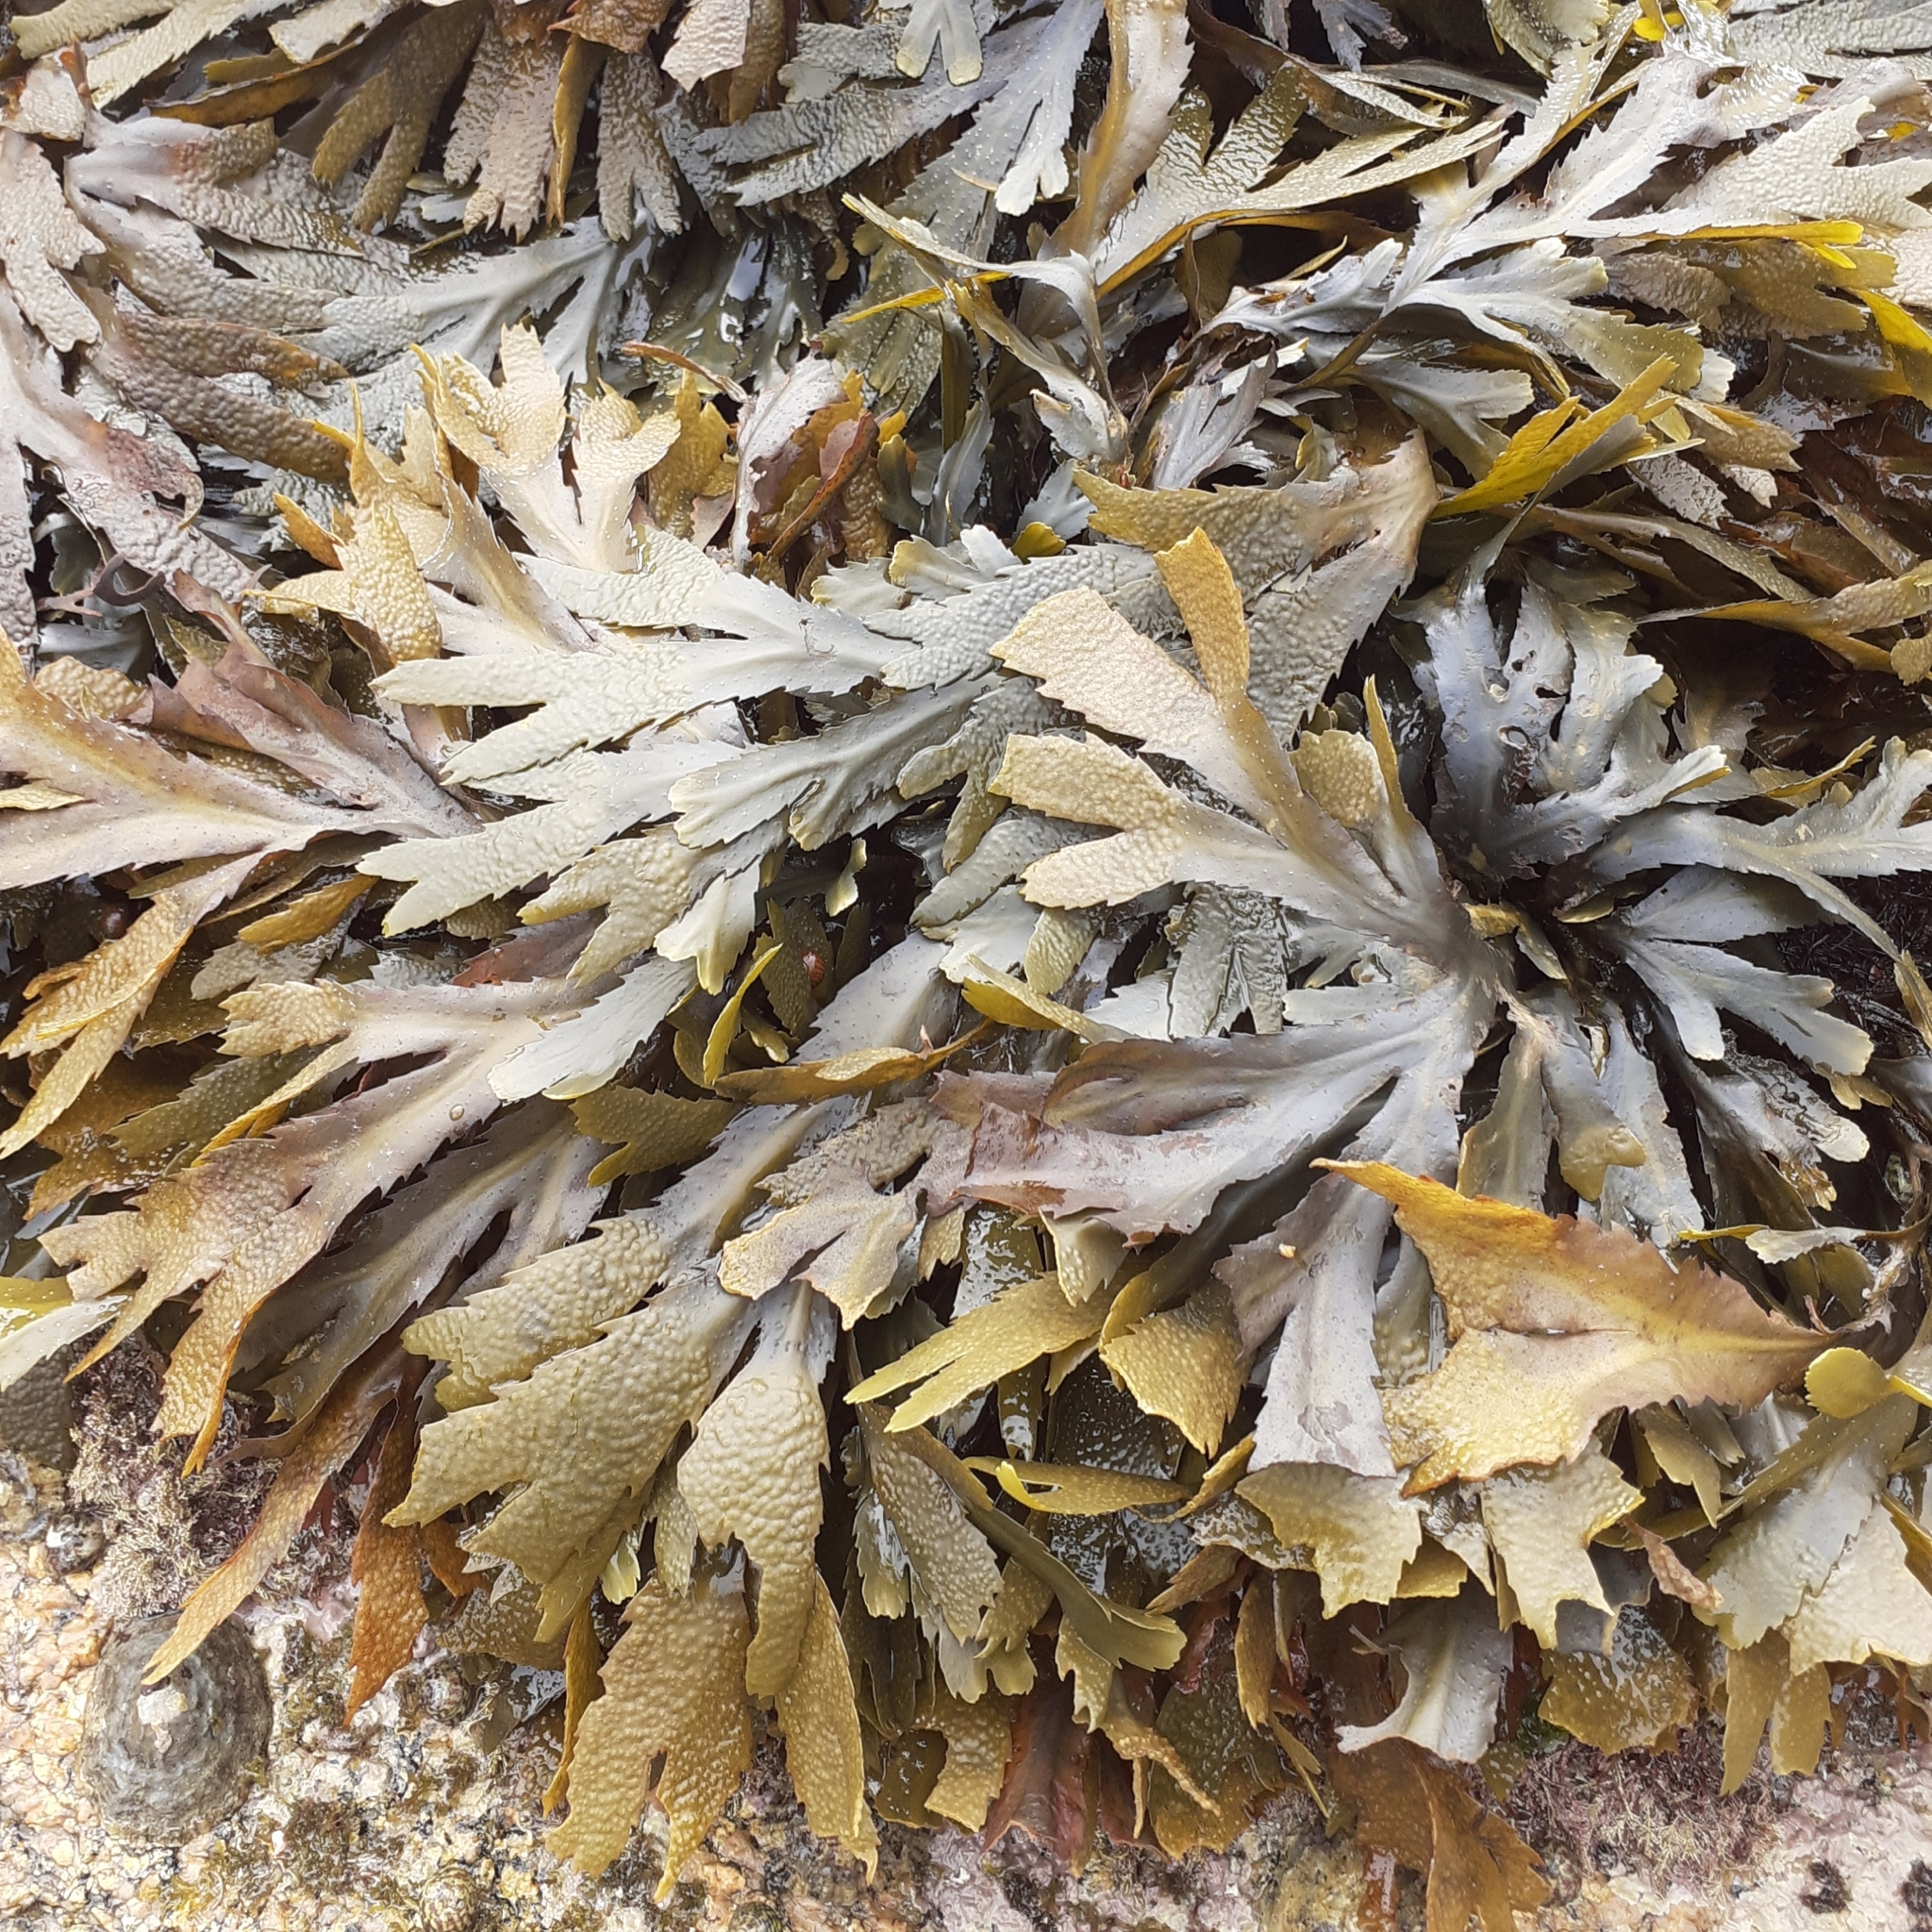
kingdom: Chromista
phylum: Ochrophyta
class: Phaeophyceae
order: Fucales
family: Fucaceae
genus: Fucus
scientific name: Fucus serratus
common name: Toothed wrack
